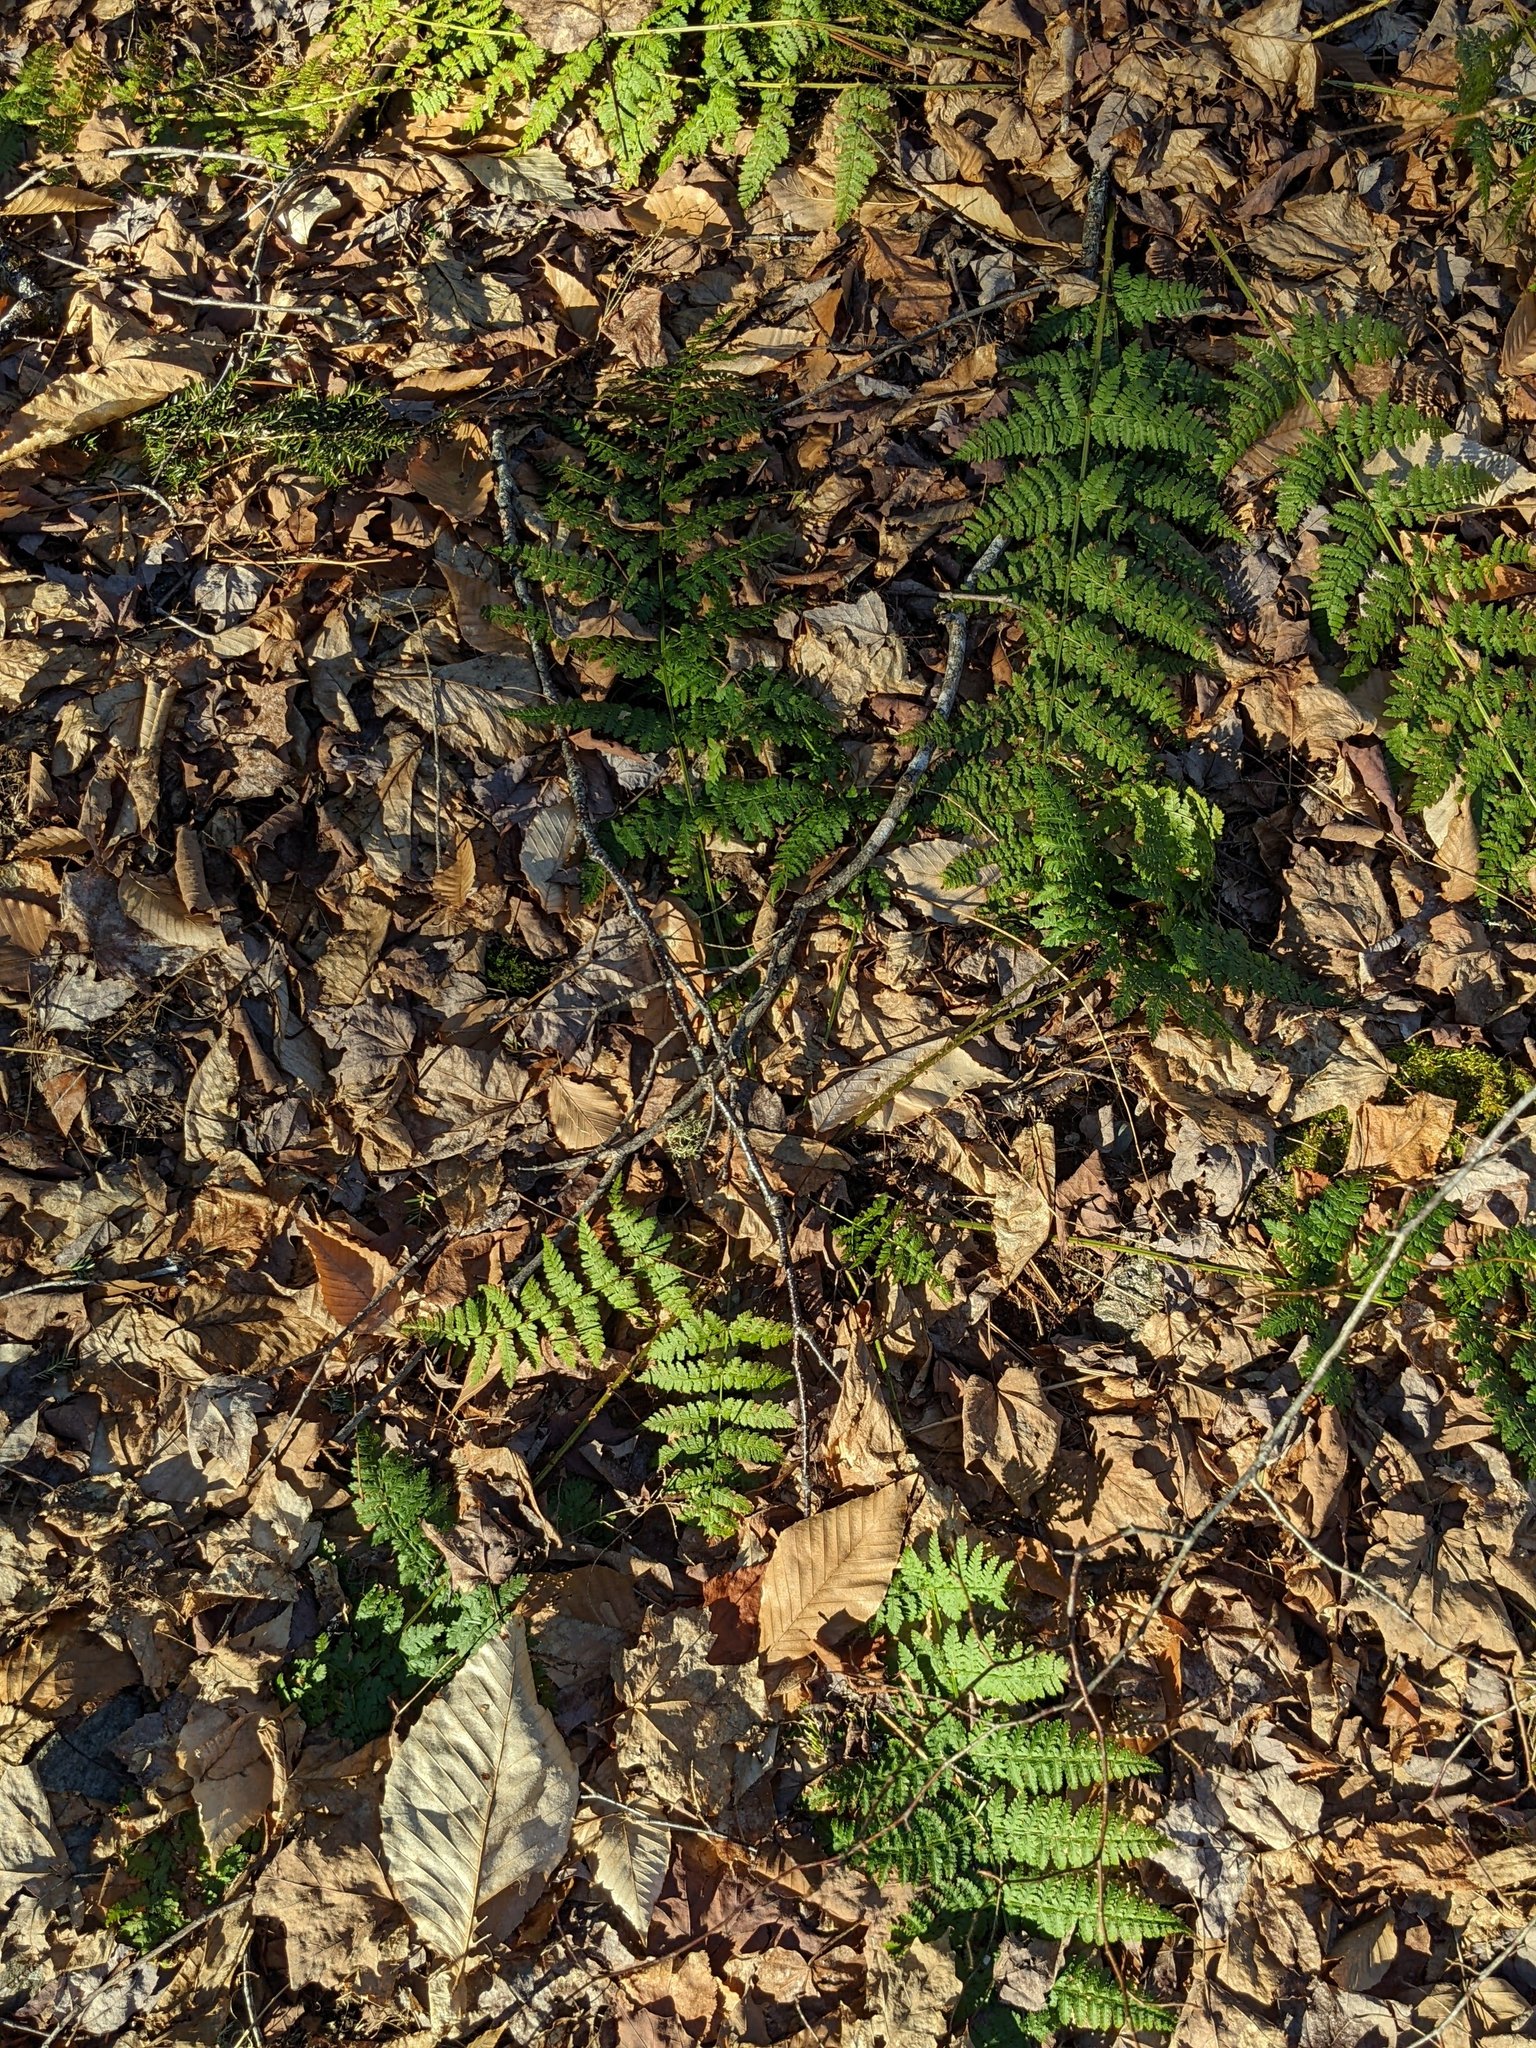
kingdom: Plantae
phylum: Tracheophyta
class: Polypodiopsida
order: Polypodiales
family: Dryopteridaceae
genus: Dryopteris
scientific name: Dryopteris intermedia
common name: Evergreen wood fern
